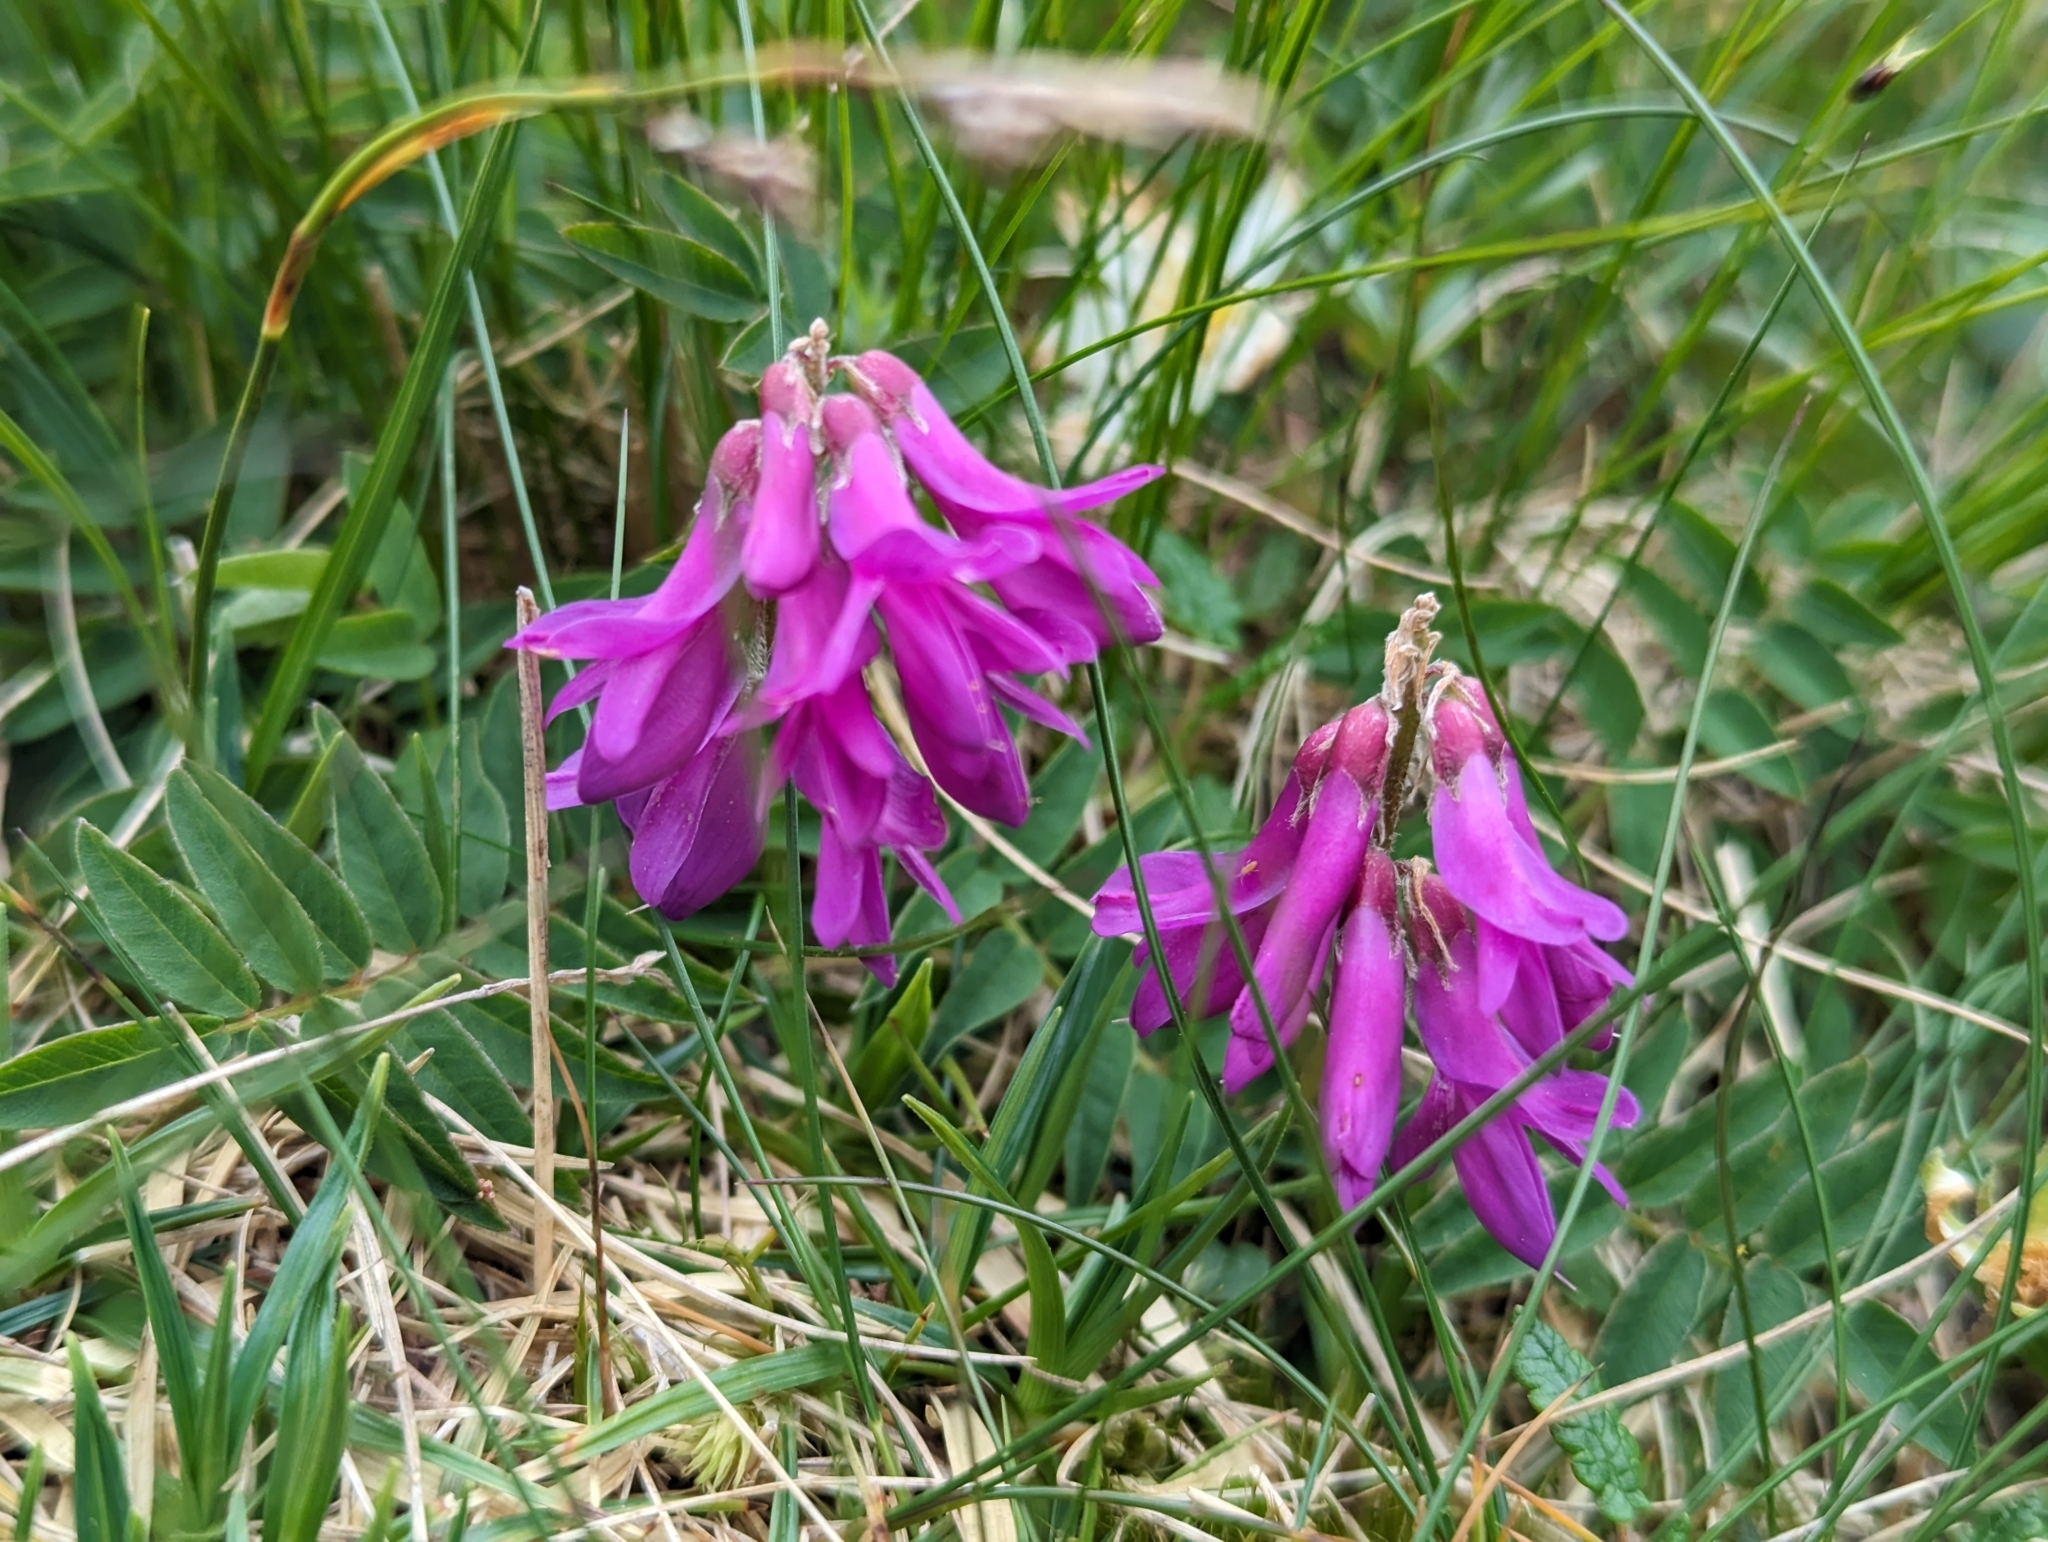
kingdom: Plantae
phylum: Tracheophyta
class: Magnoliopsida
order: Fabales
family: Fabaceae
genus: Hedysarum
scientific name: Hedysarum hedysaroides
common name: Alpine french-honeysuckle
